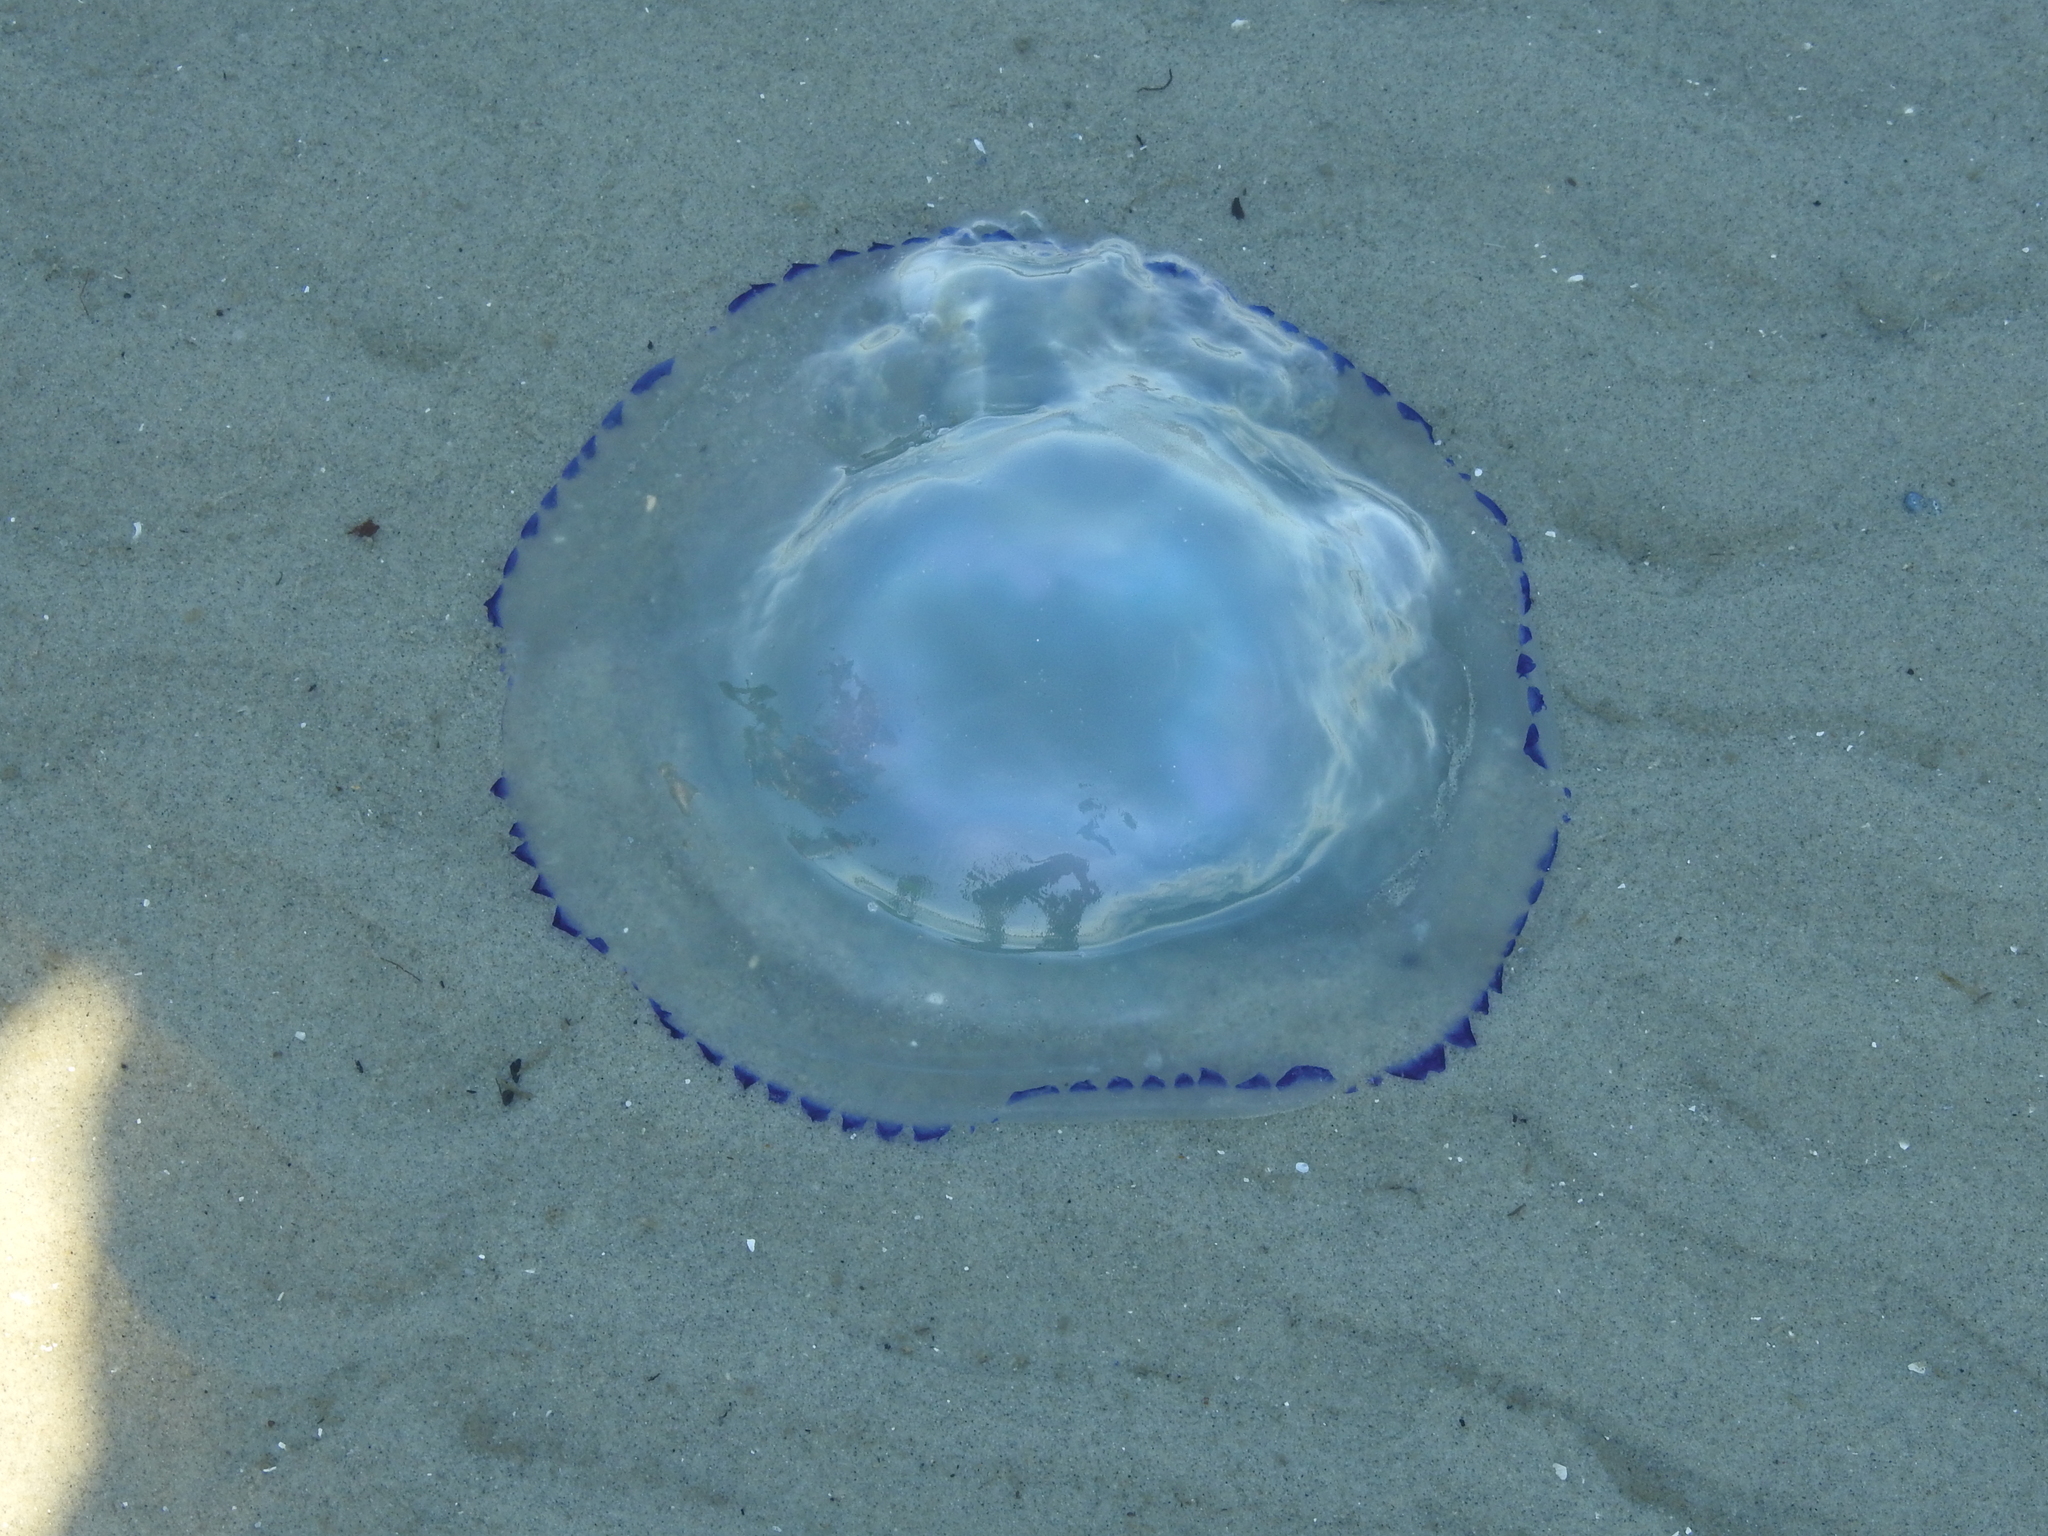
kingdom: Animalia
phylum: Cnidaria
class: Scyphozoa
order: Rhizostomeae
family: Rhizostomatidae
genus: Rhizostoma
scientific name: Rhizostoma octopus
